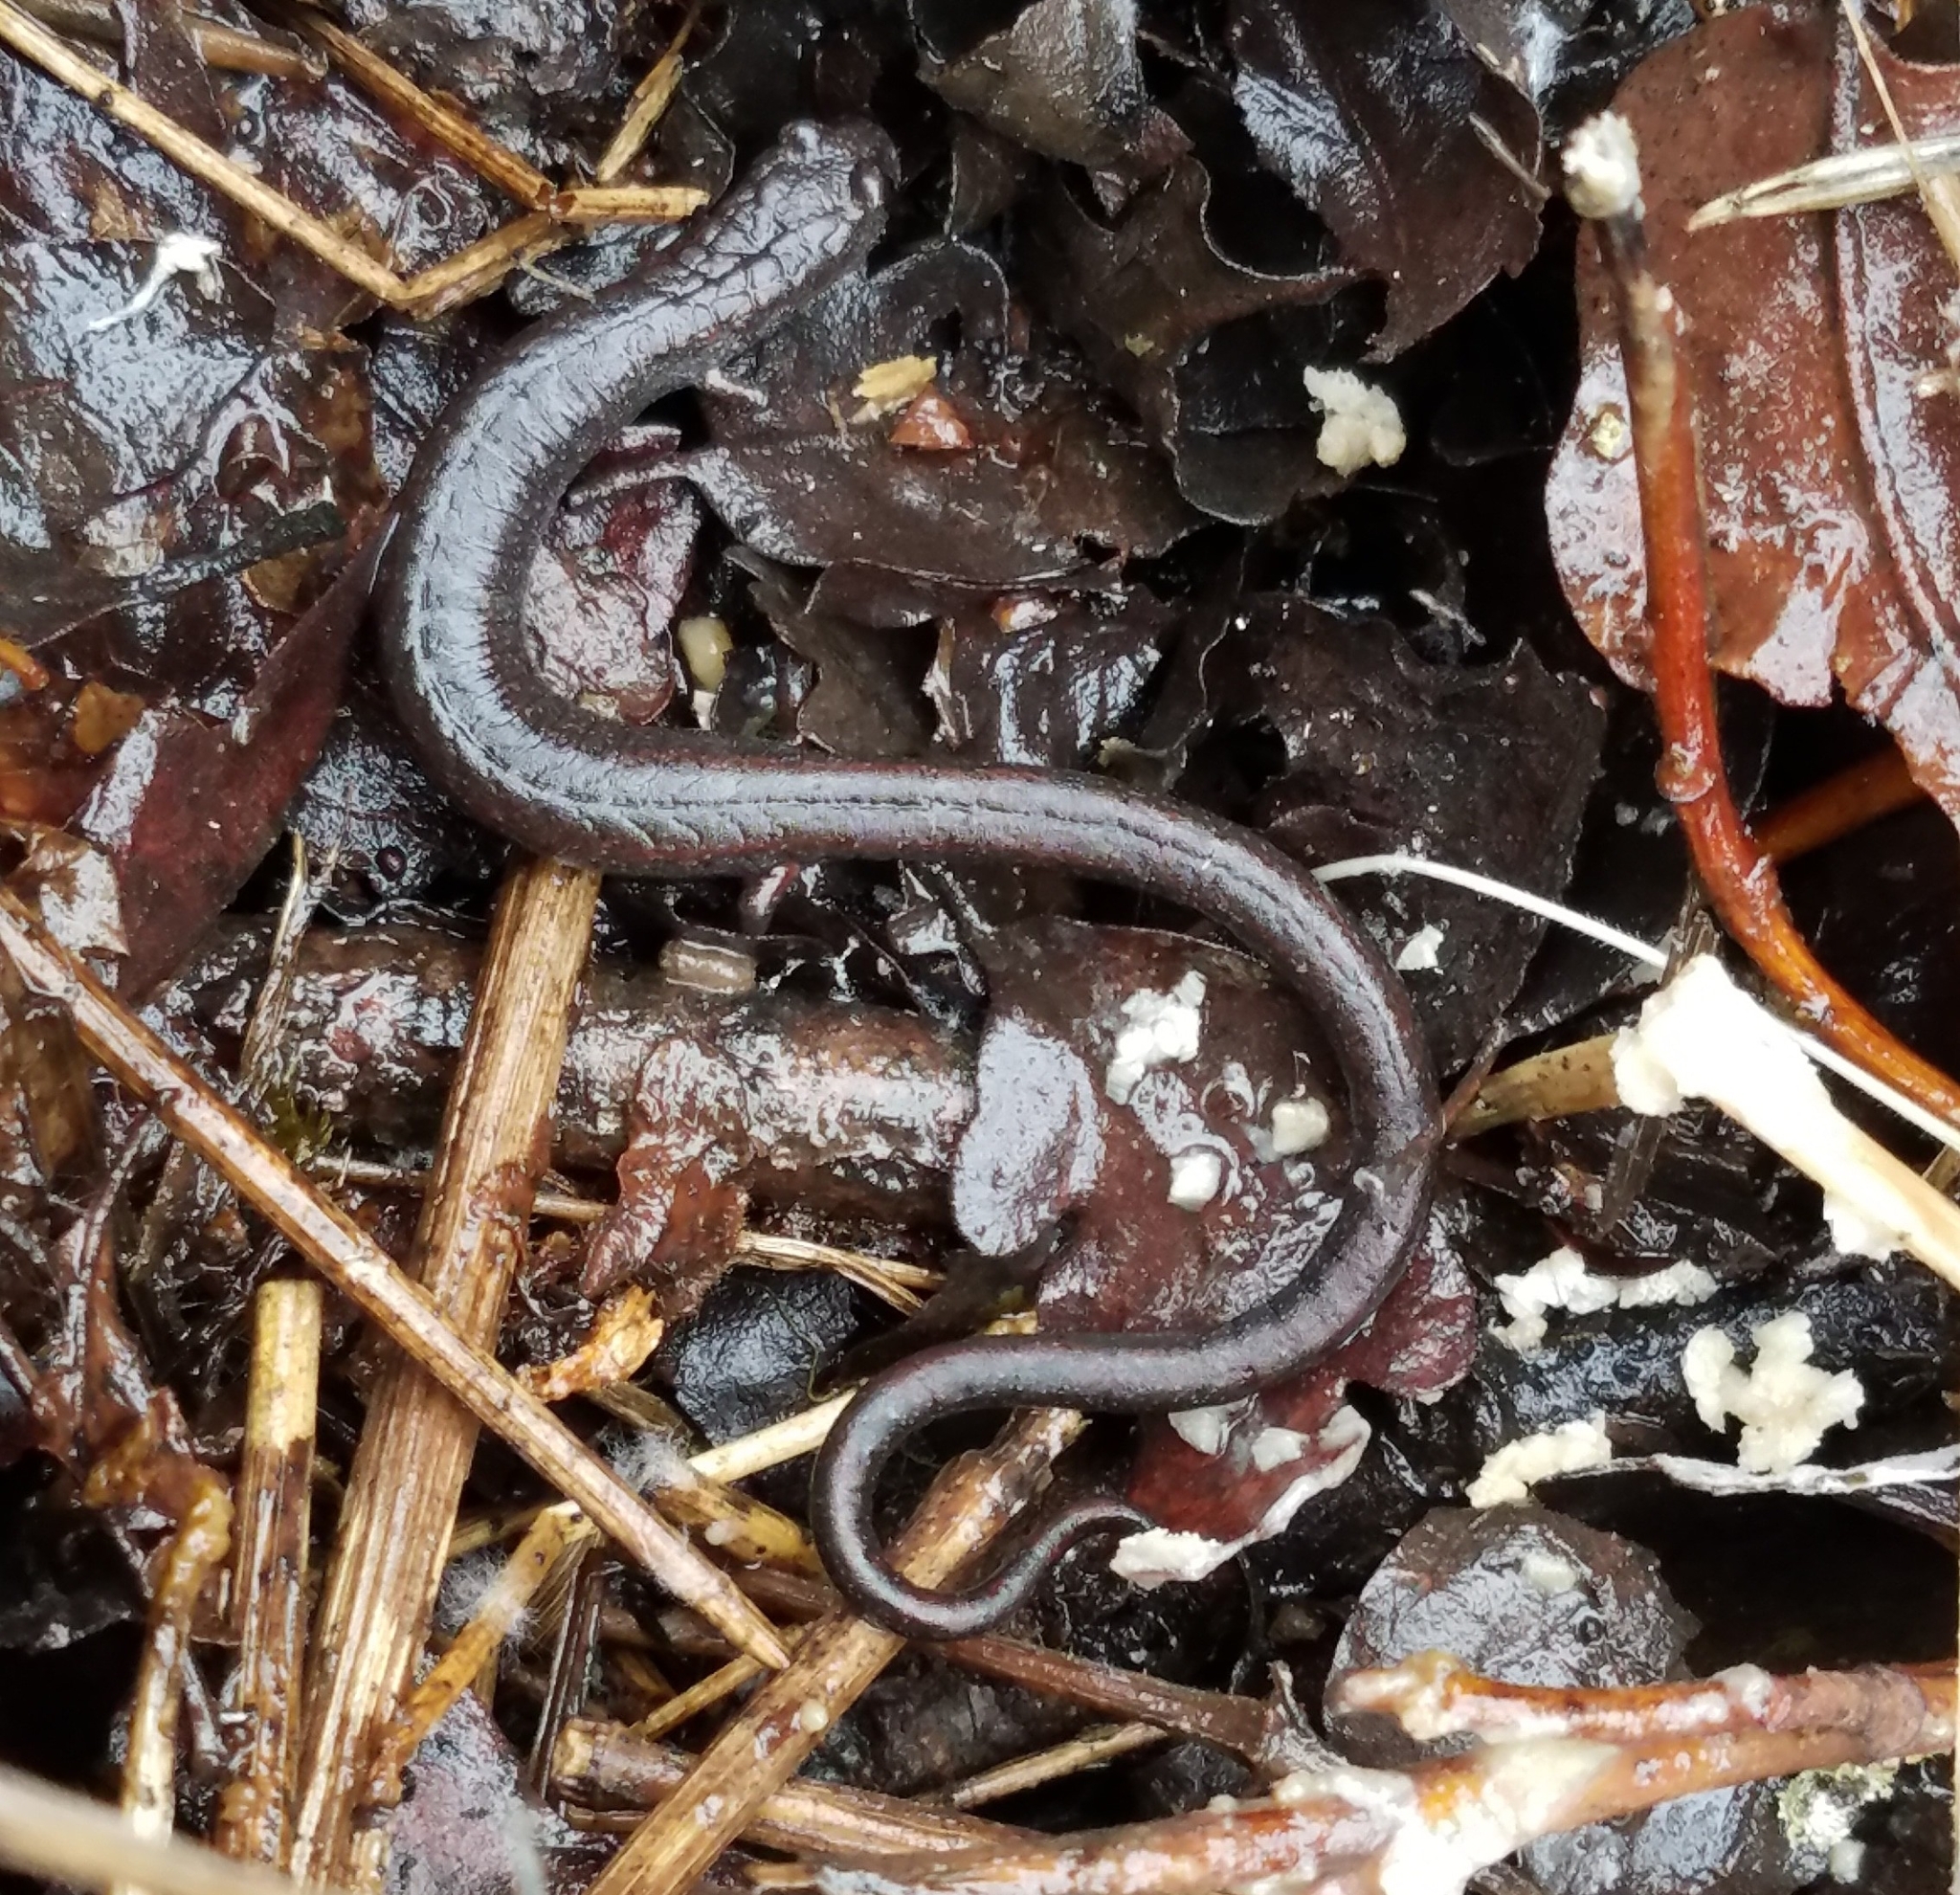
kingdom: Animalia
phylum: Chordata
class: Amphibia
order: Caudata
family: Plethodontidae
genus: Batrachoseps
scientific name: Batrachoseps attenuatus
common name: California slender salamander
